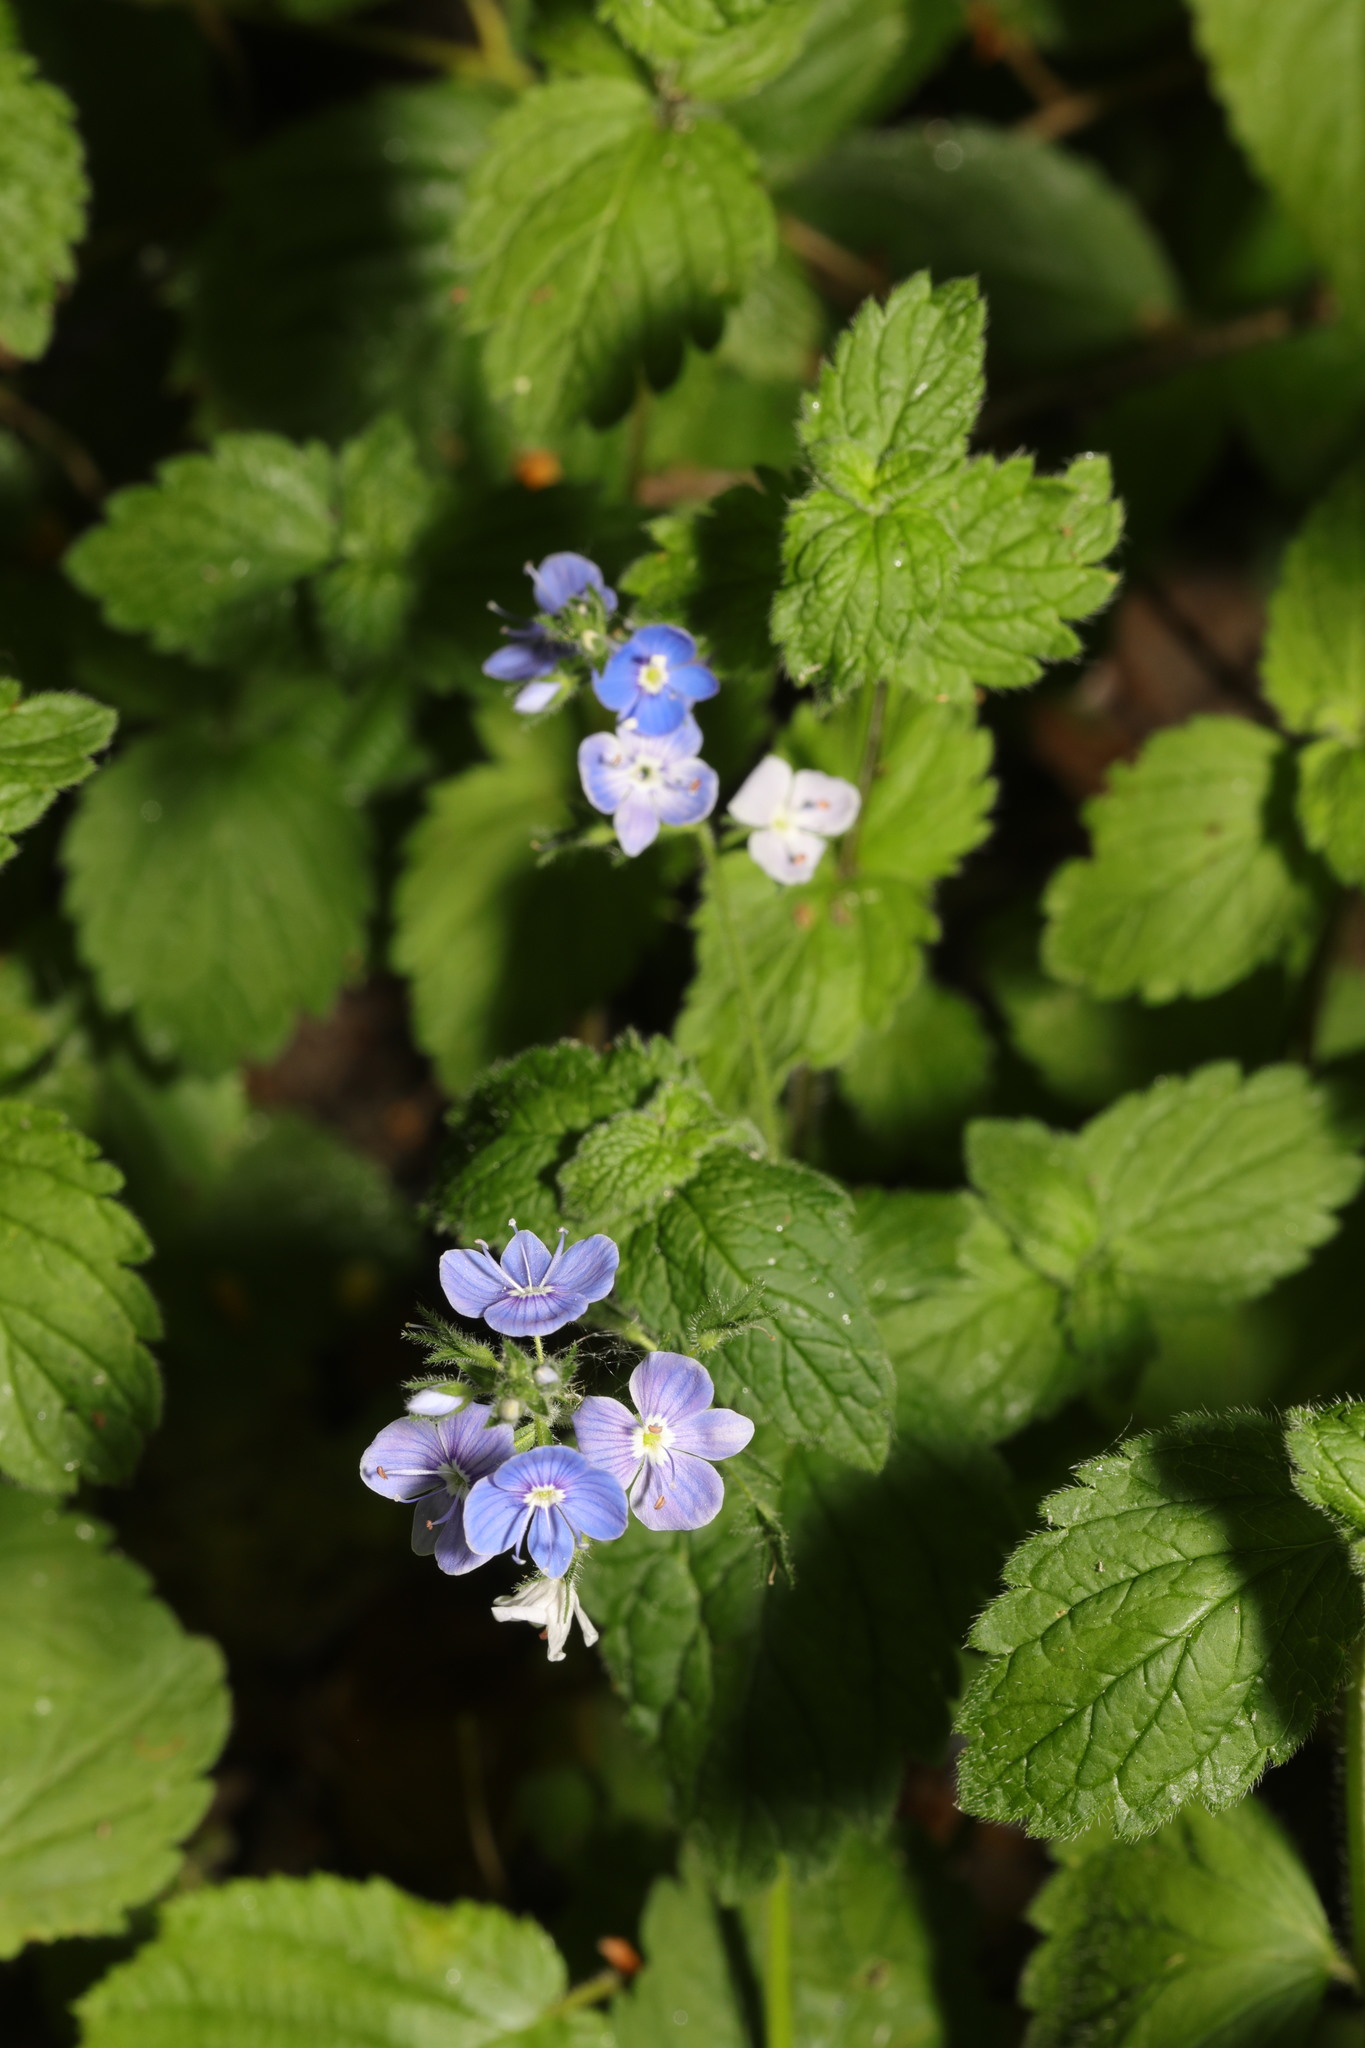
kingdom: Plantae
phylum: Tracheophyta
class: Magnoliopsida
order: Lamiales
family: Plantaginaceae
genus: Veronica
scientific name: Veronica chamaedrys
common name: Germander speedwell
